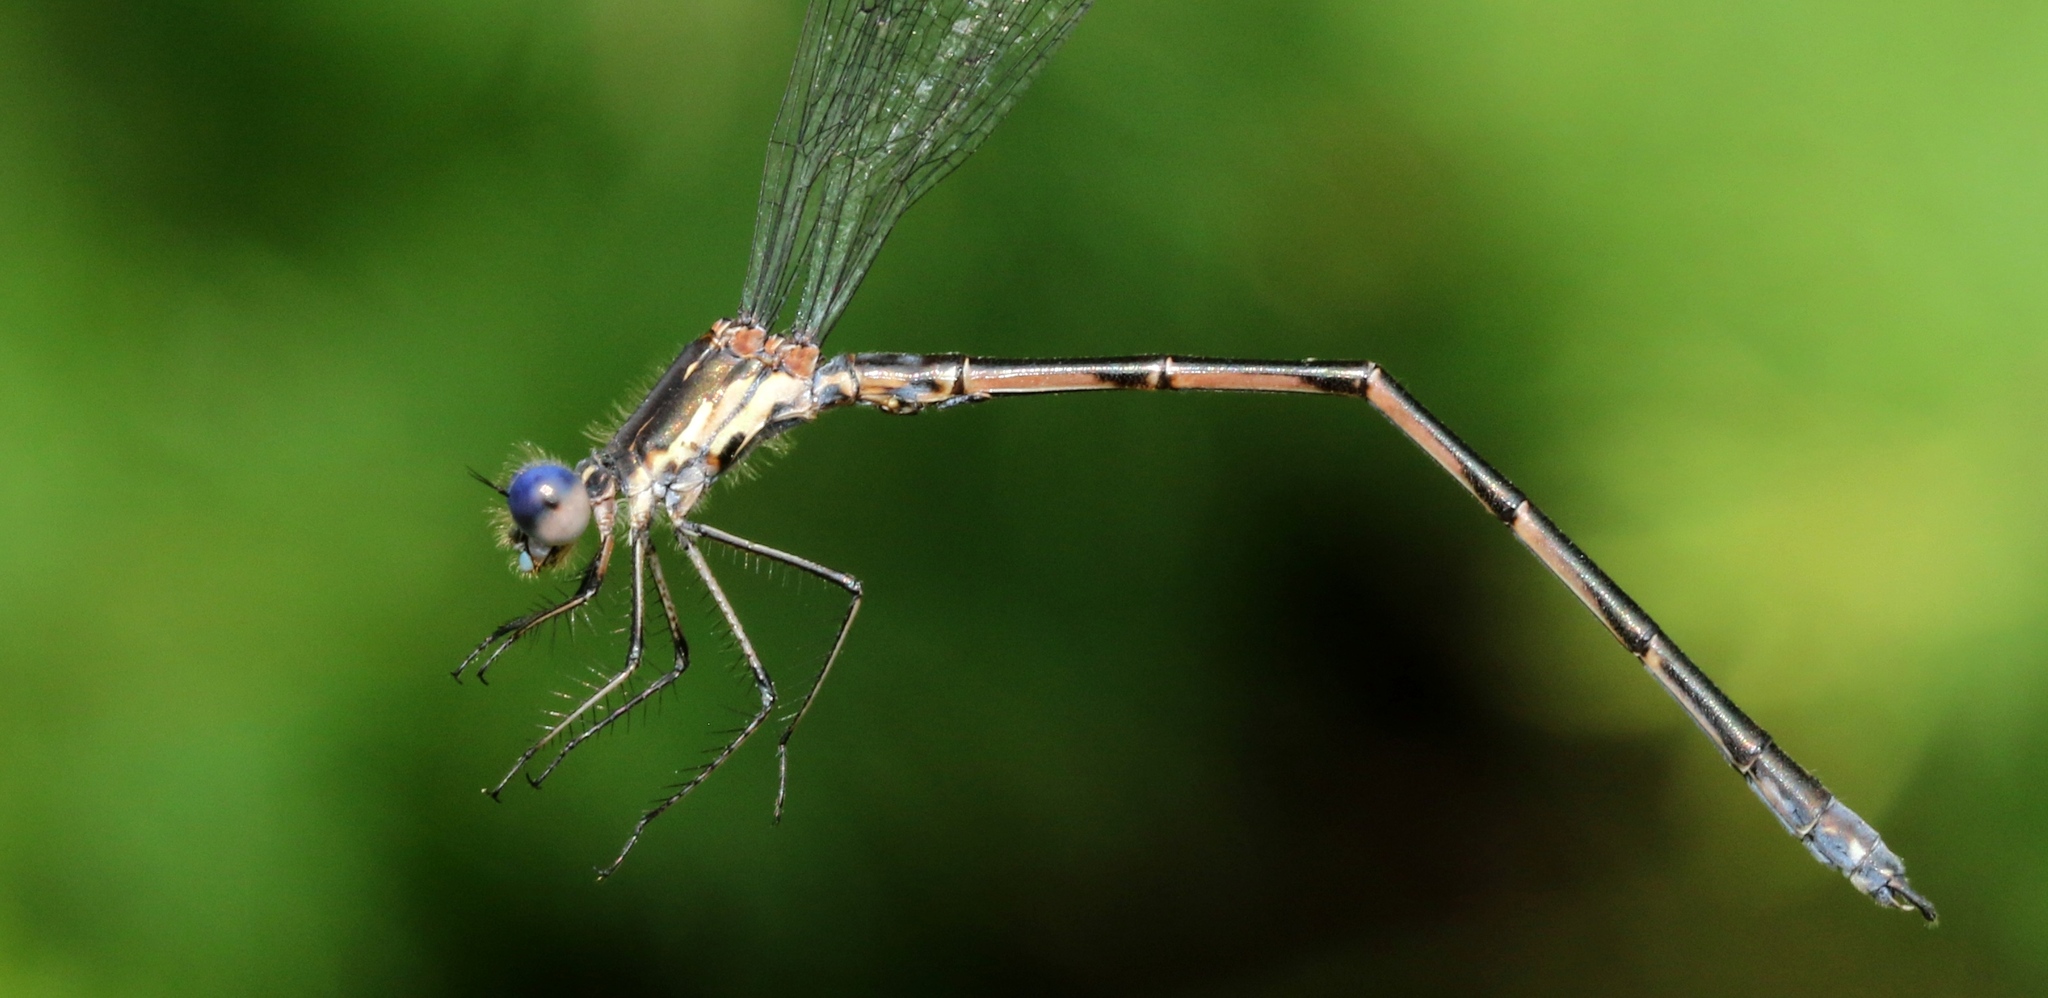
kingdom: Animalia
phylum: Arthropoda
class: Insecta
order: Odonata
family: Lestidae
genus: Lestes
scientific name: Lestes congener
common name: Spotted spreadwing
